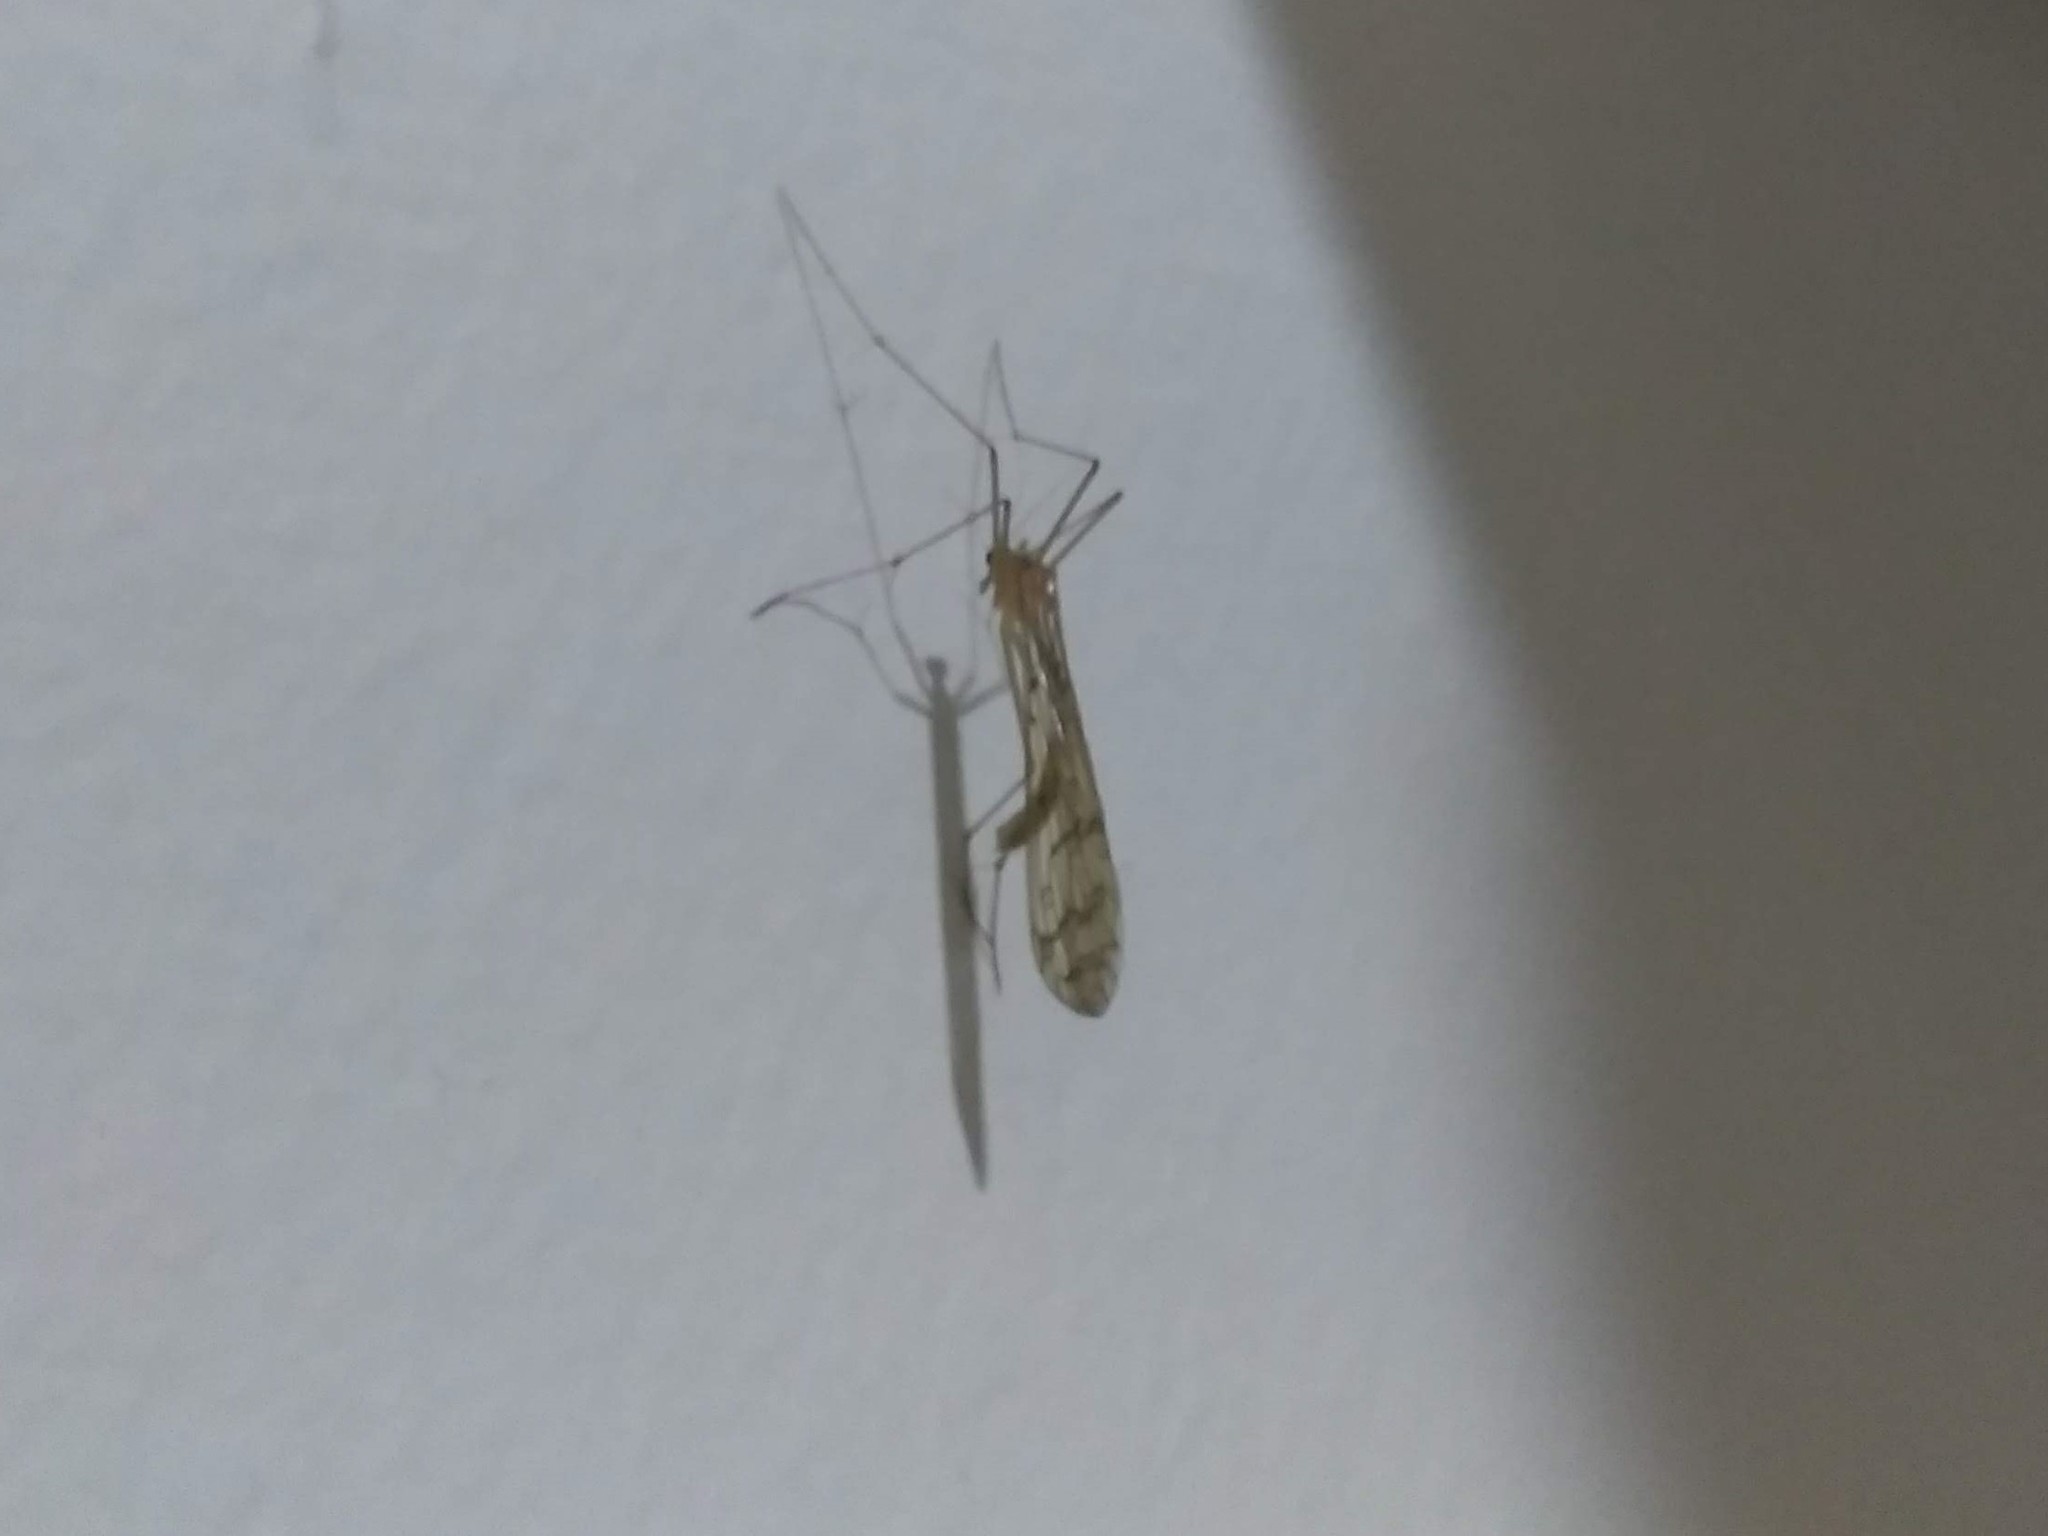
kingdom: Animalia
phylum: Arthropoda
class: Insecta
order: Mecoptera
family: Bittacidae
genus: Bittacus
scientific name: Bittacus strigosus
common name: Thin hangingfly
